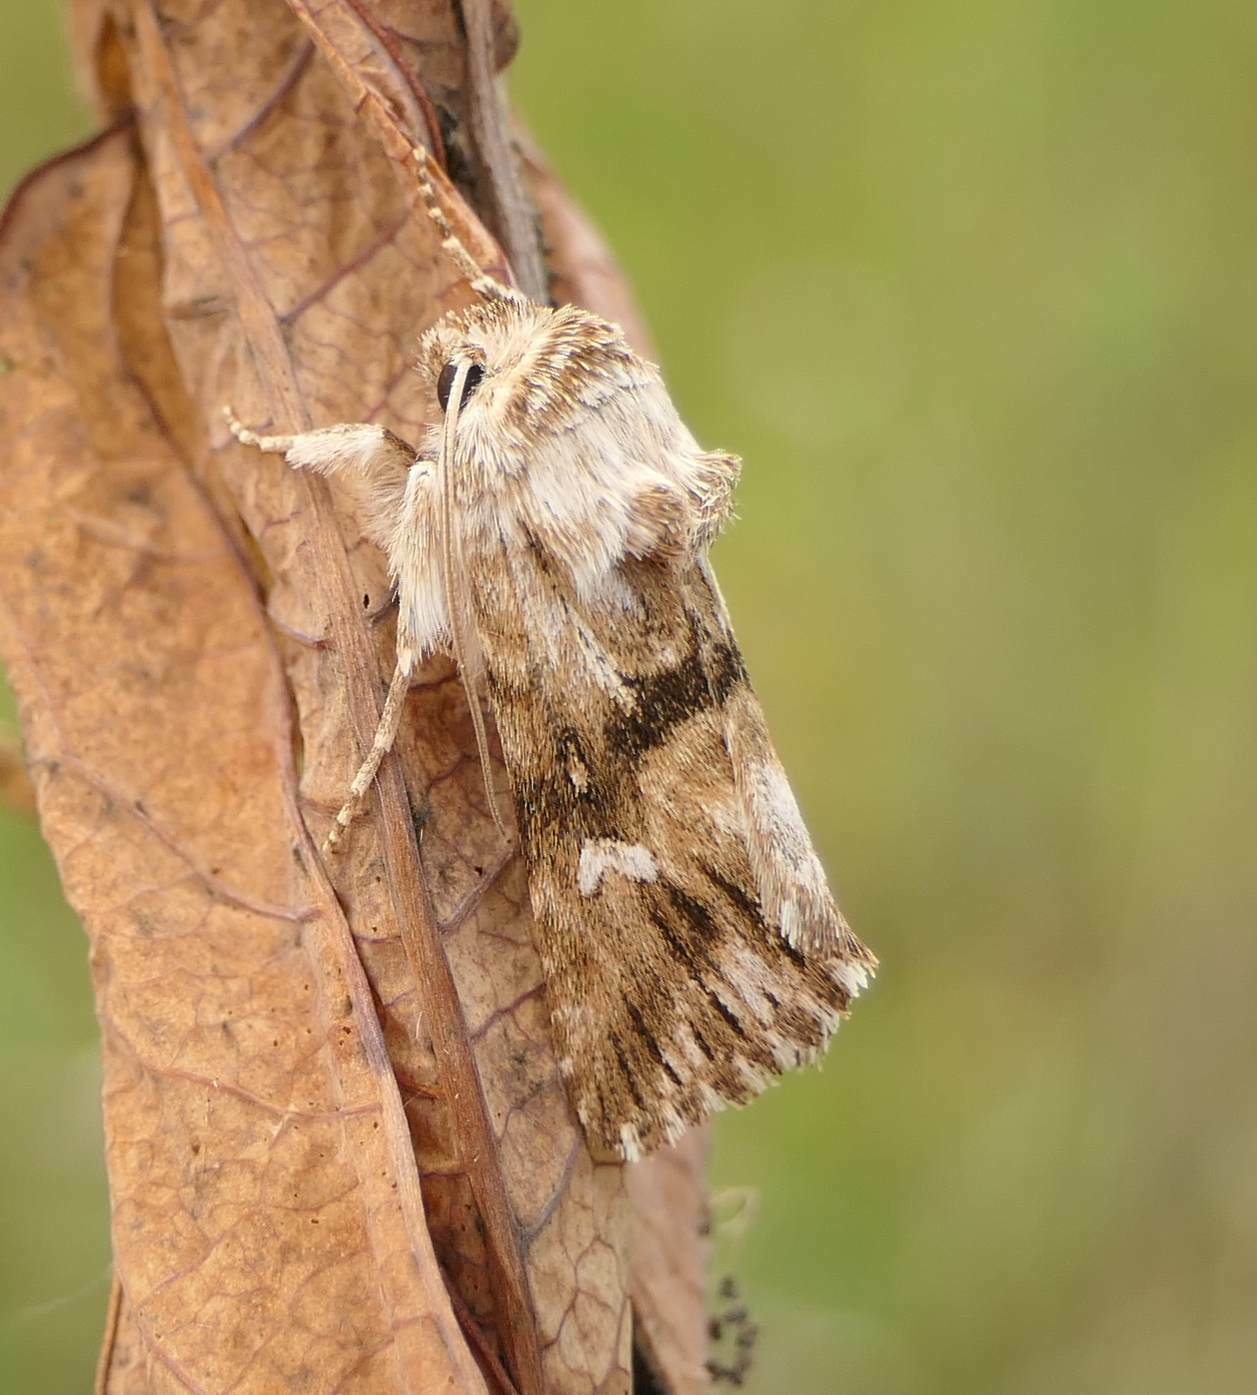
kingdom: Animalia
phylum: Arthropoda
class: Insecta
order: Lepidoptera
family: Noctuidae
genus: Calophasia
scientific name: Calophasia lunula
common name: Toadflax brocade
